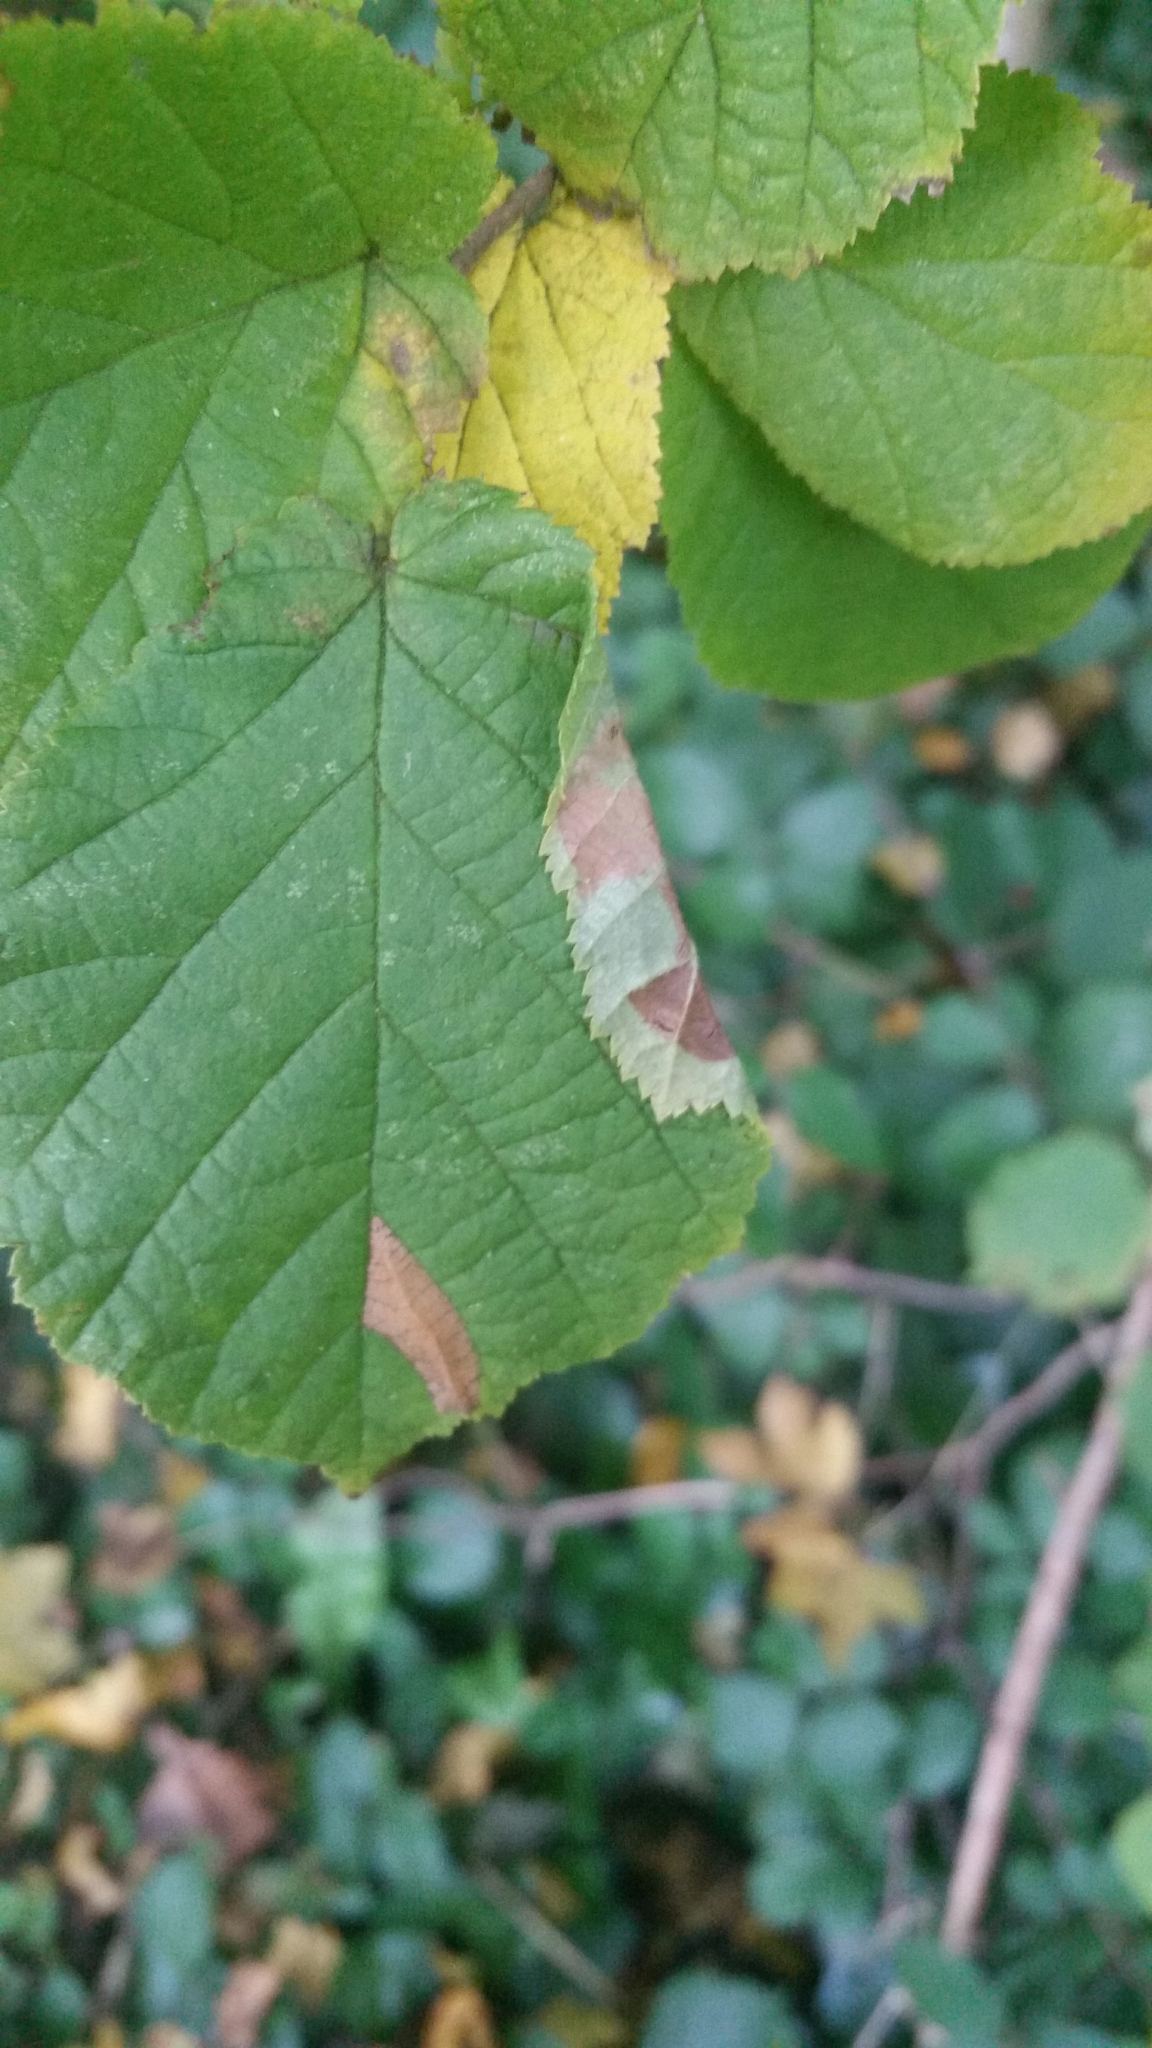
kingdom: Animalia
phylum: Arthropoda
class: Insecta
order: Lepidoptera
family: Gracillariidae
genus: Parornix
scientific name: Parornix devoniella
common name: Hazel slender
